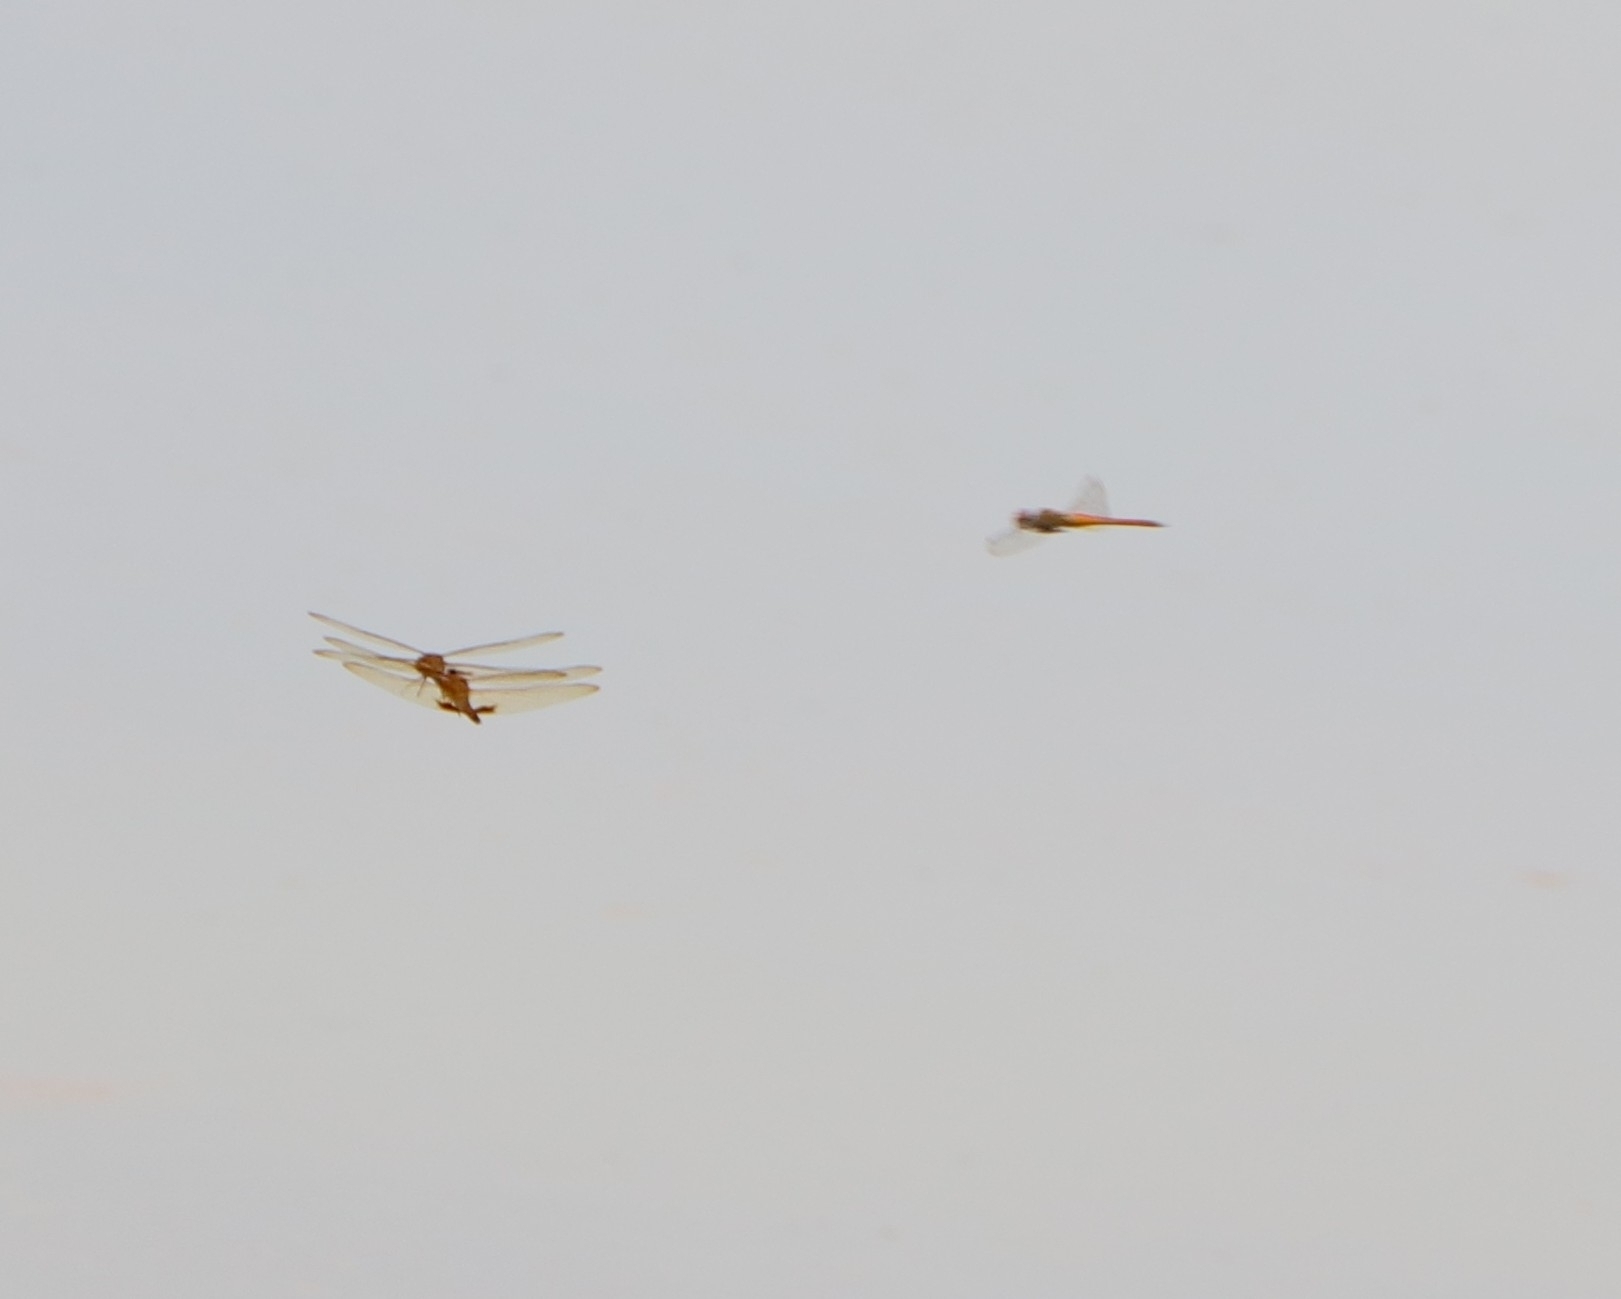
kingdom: Animalia
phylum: Arthropoda
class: Insecta
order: Odonata
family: Libellulidae
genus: Pantala
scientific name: Pantala flavescens
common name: Wandering glider
